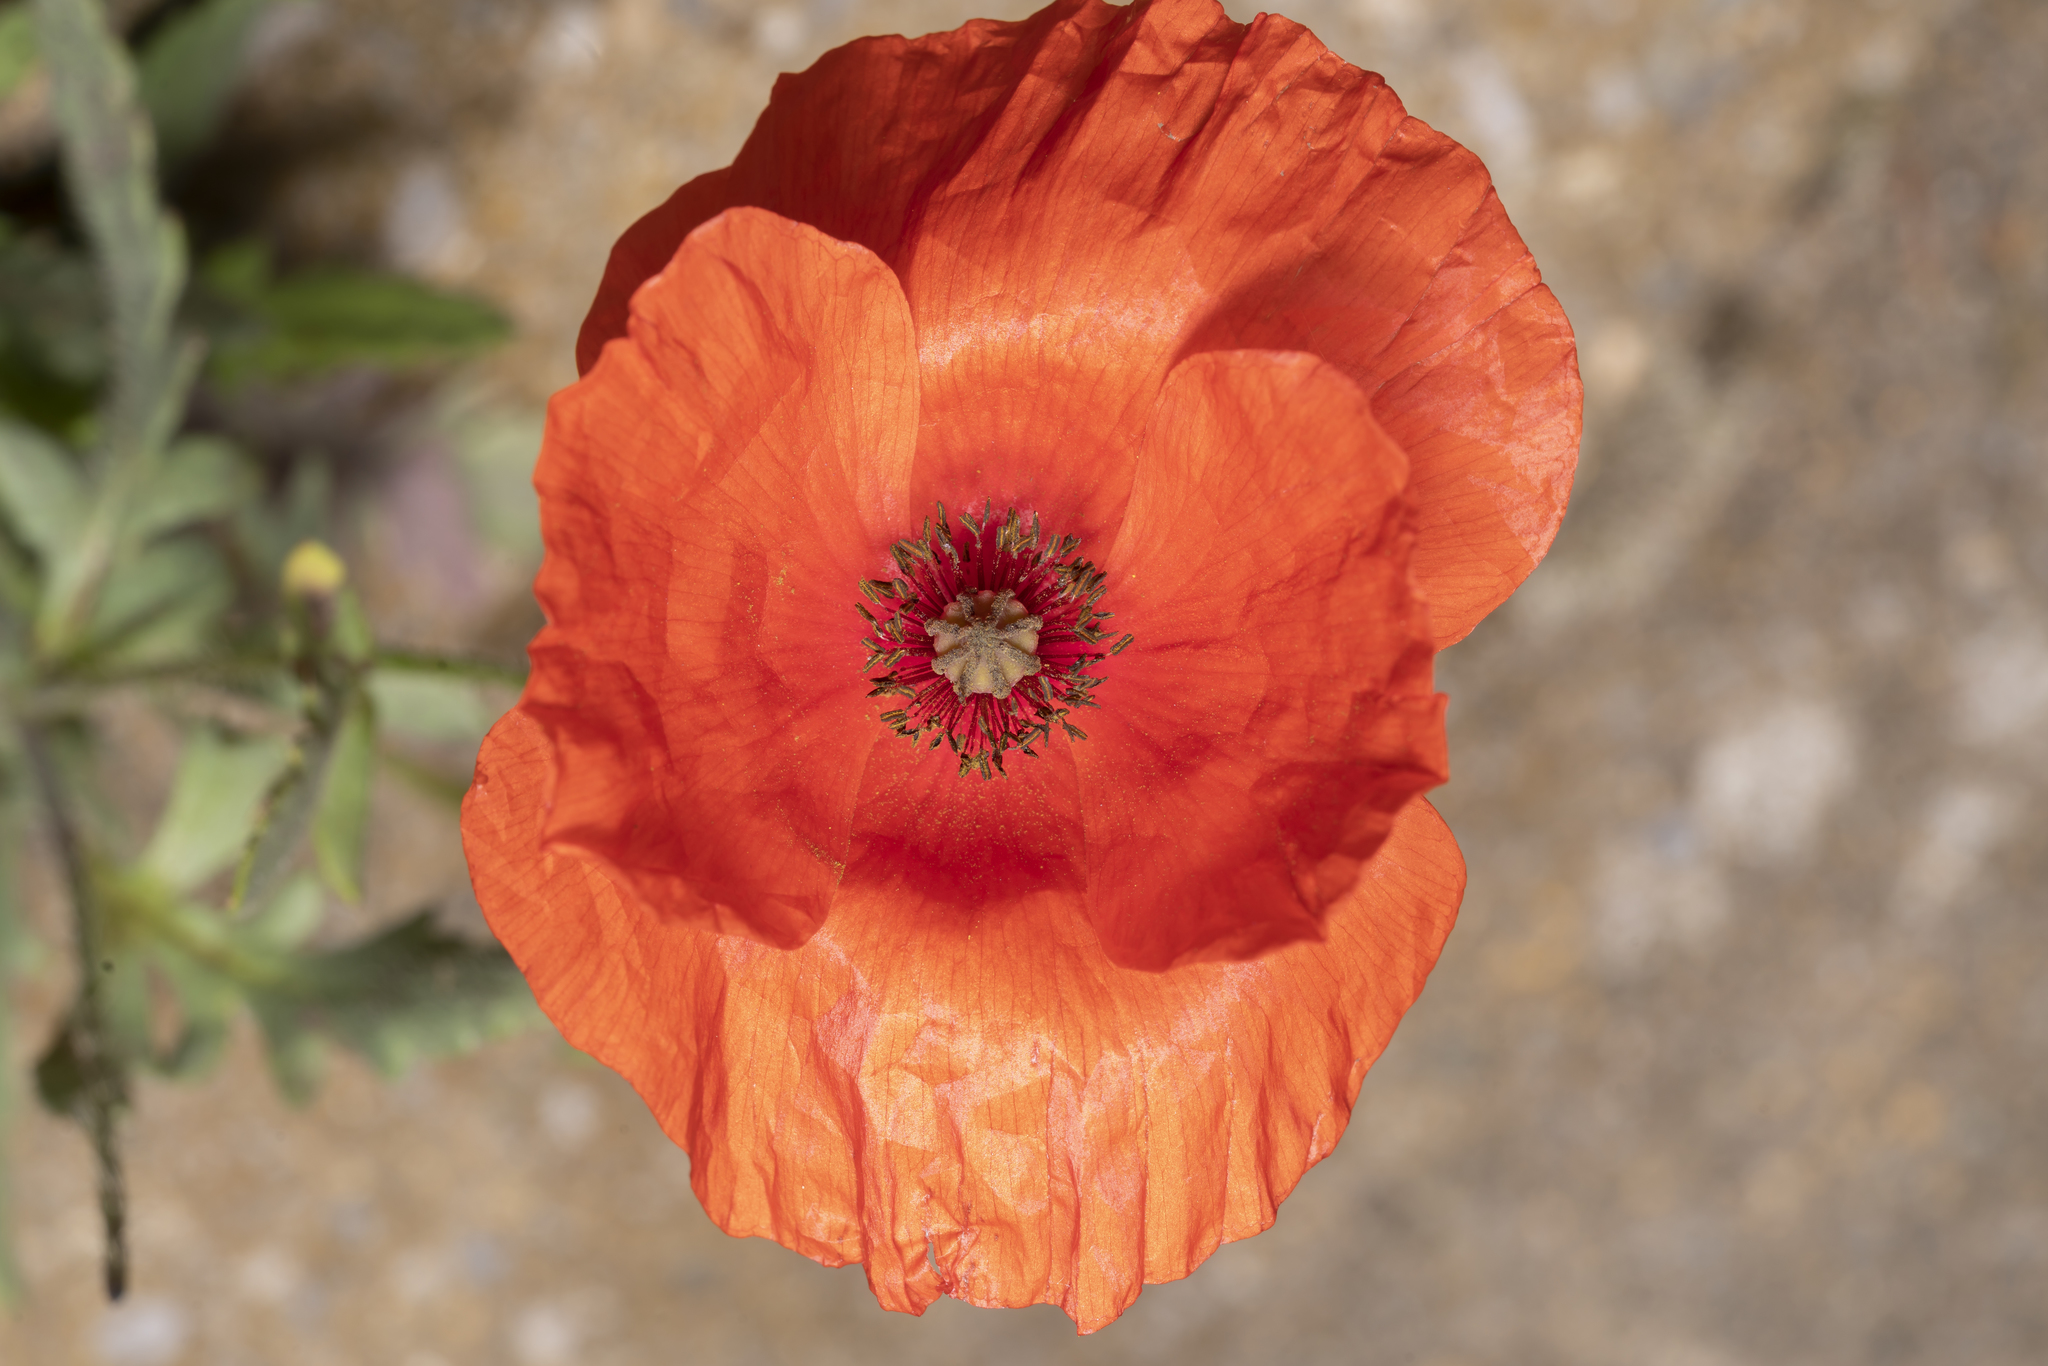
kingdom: Plantae
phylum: Tracheophyta
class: Magnoliopsida
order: Ranunculales
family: Papaveraceae
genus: Papaver
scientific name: Papaver rhoeas
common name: Corn poppy
